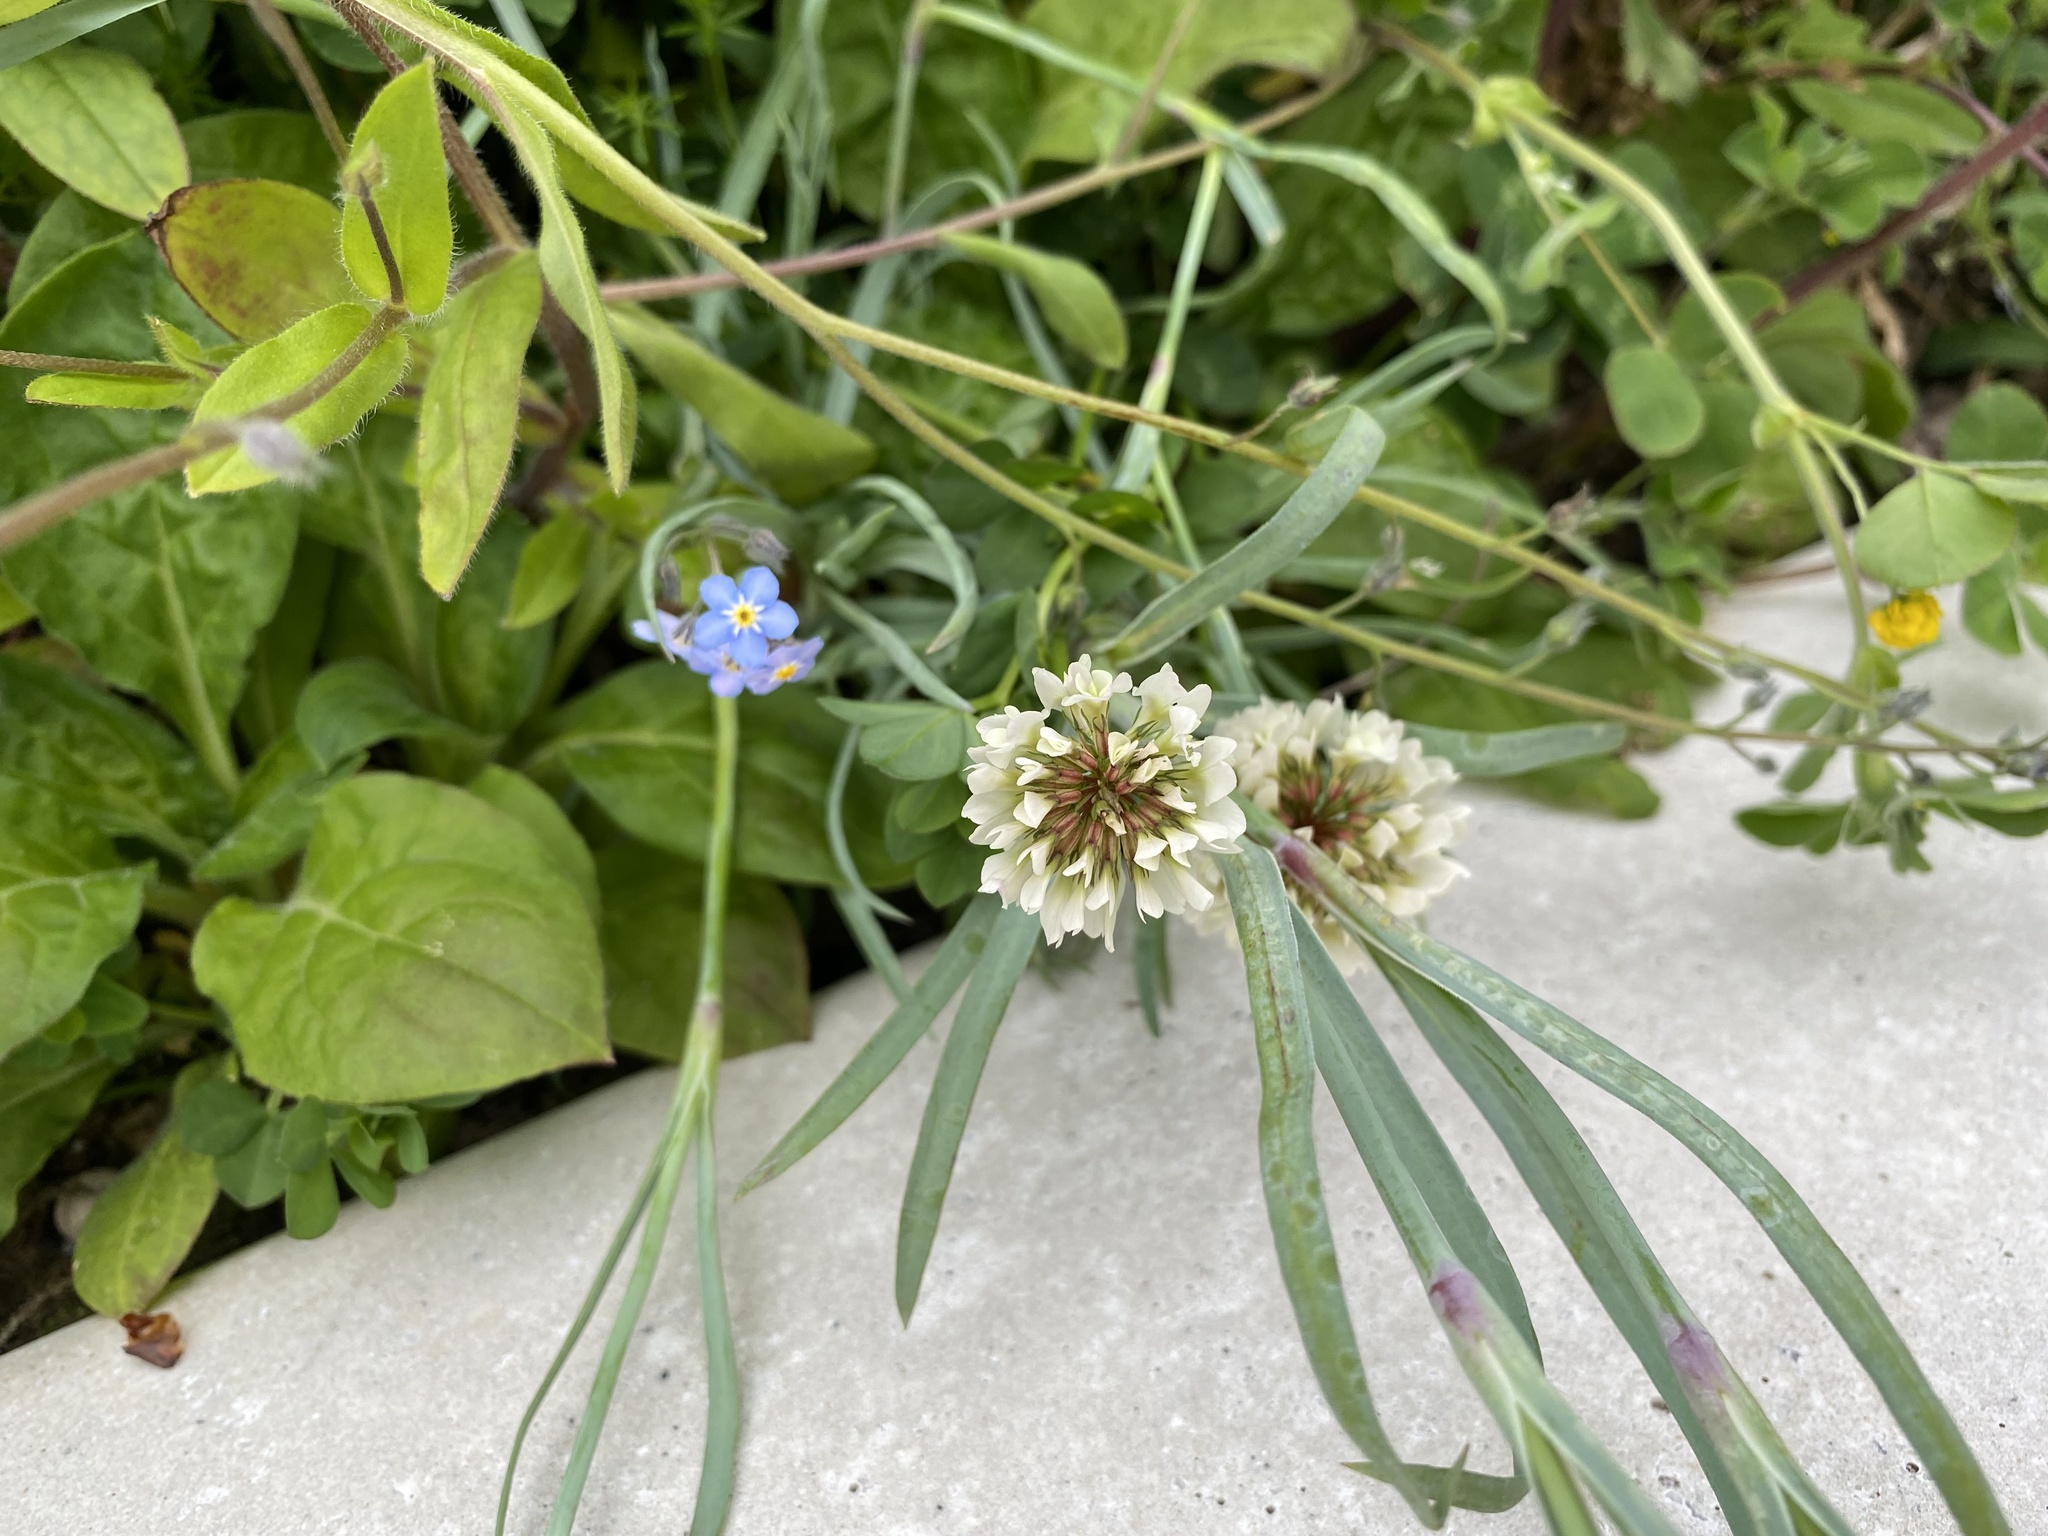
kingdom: Plantae
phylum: Tracheophyta
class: Magnoliopsida
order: Fabales
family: Fabaceae
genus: Trifolium
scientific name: Trifolium repens
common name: White clover
